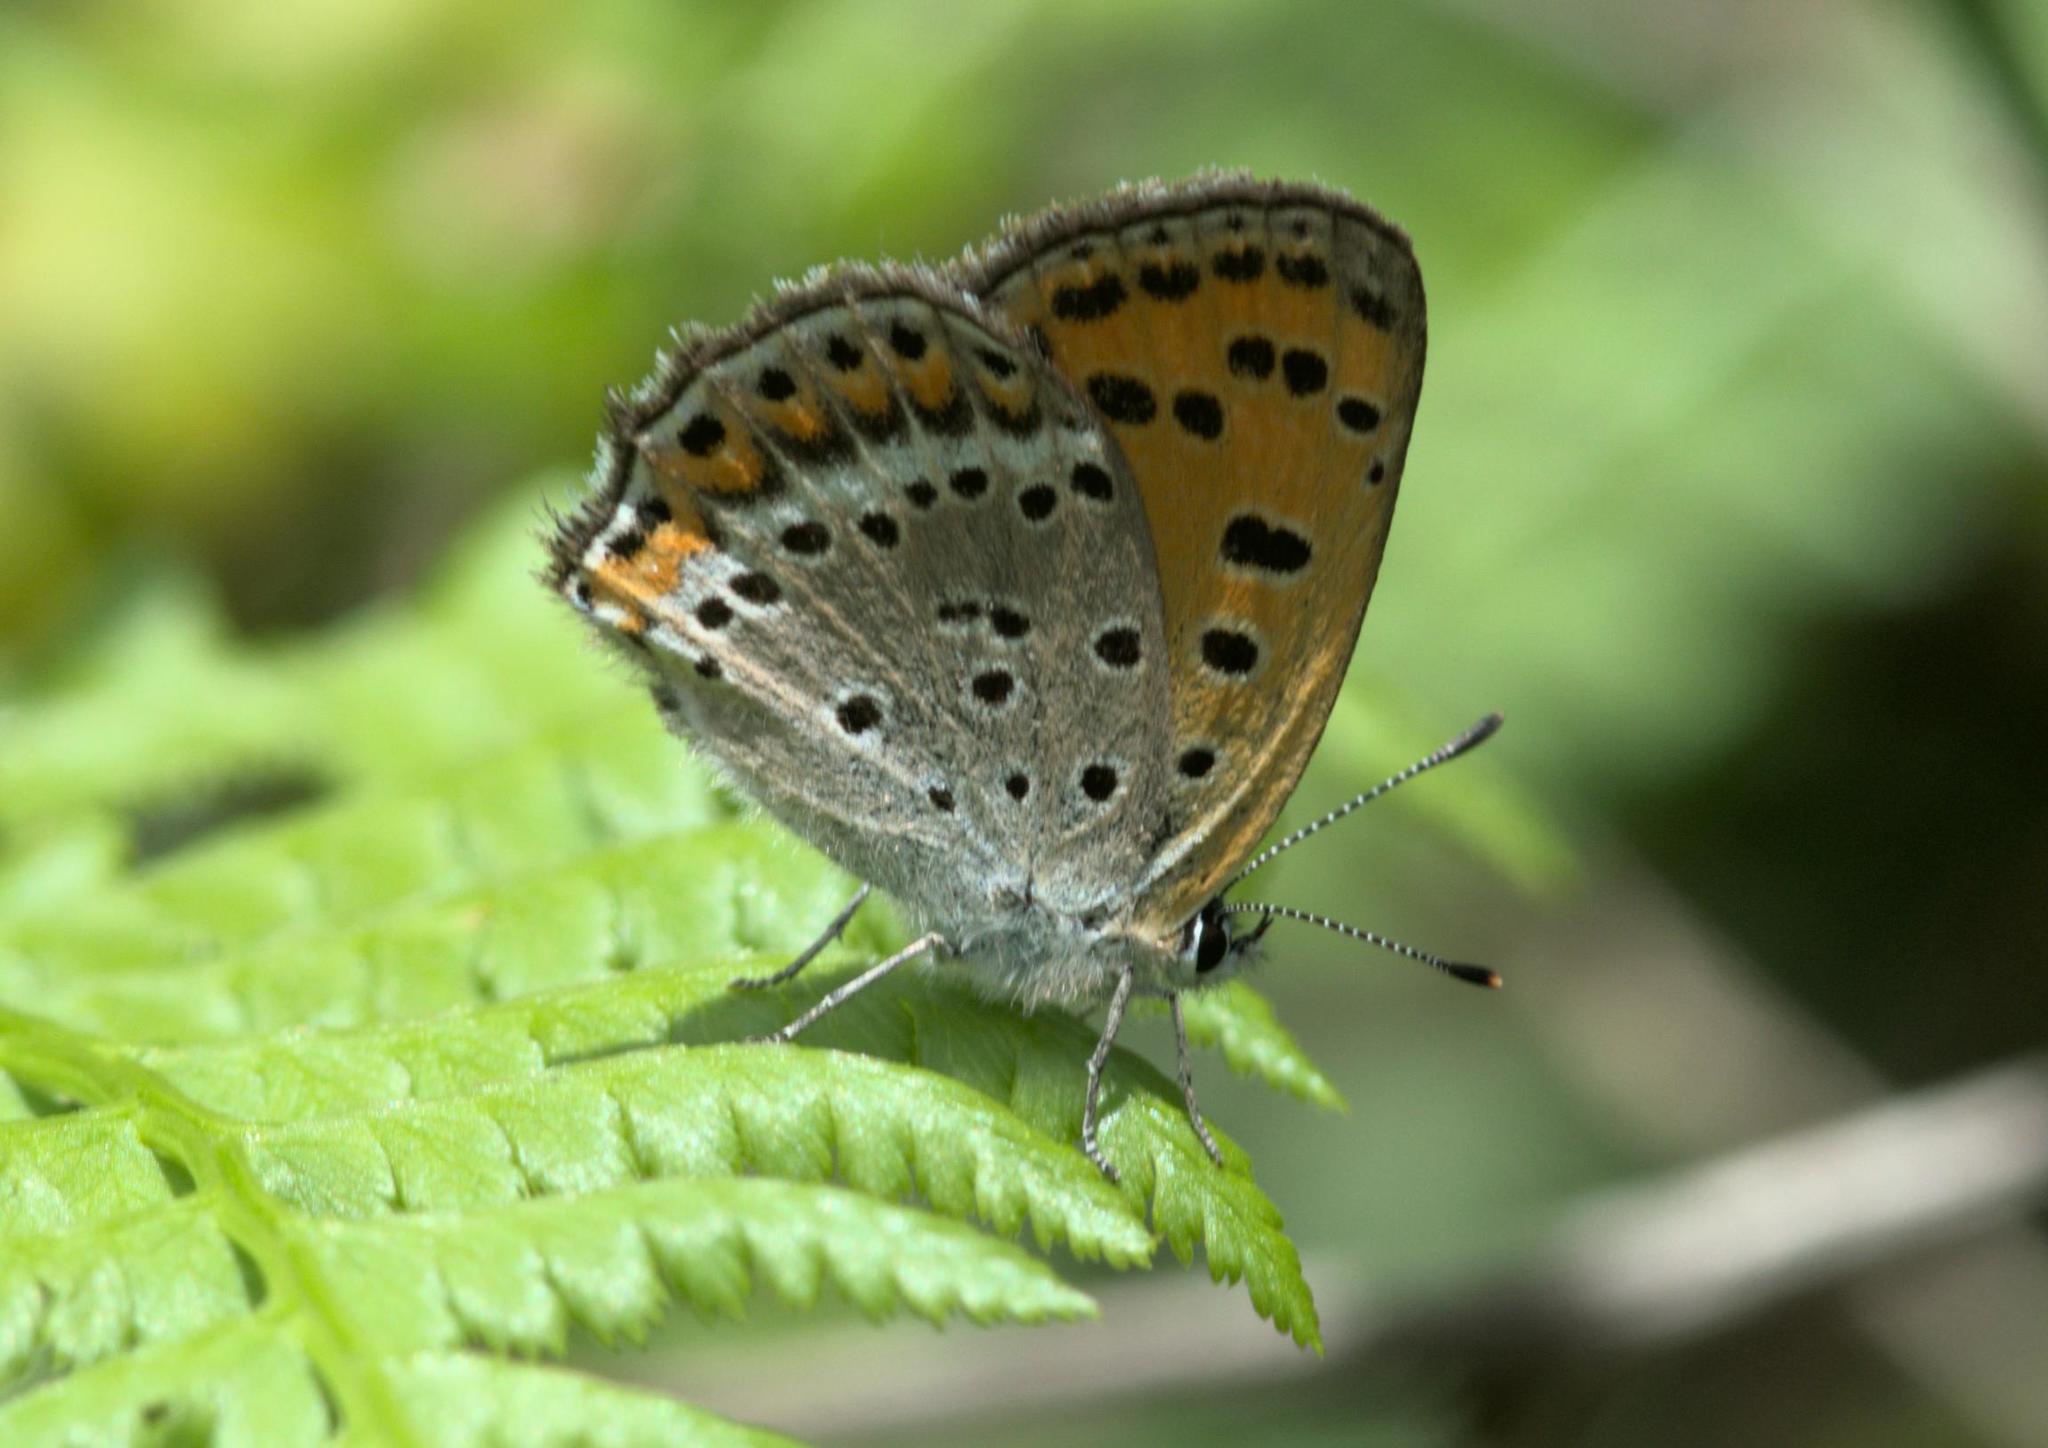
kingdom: Animalia
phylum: Arthropoda
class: Insecta
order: Lepidoptera
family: Lycaenidae
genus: Lycaena
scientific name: Lycaena panava
